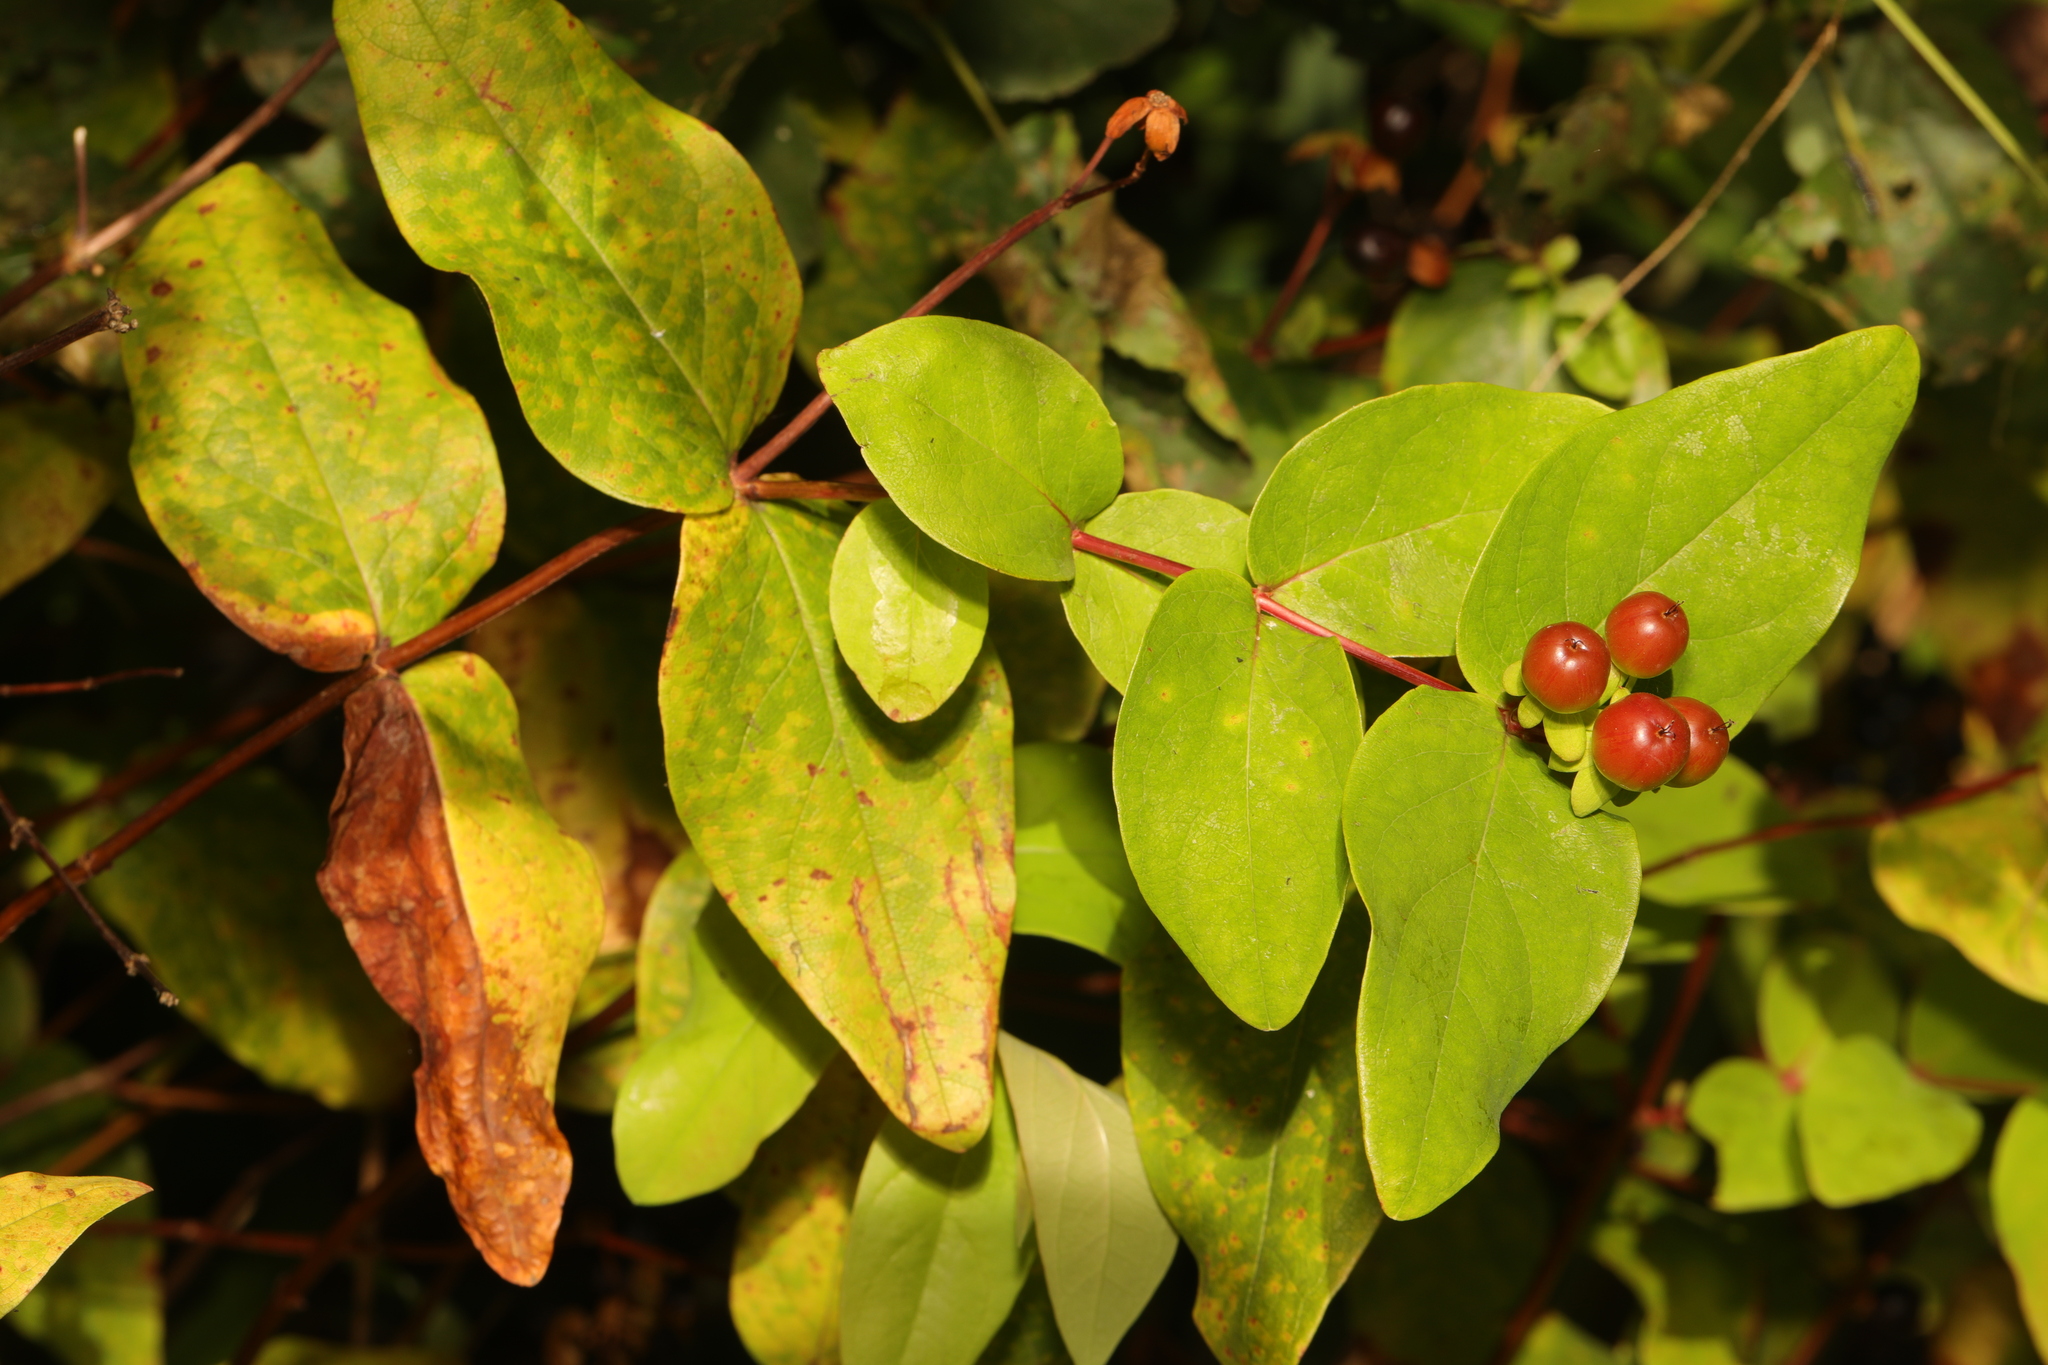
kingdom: Plantae
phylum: Tracheophyta
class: Magnoliopsida
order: Malpighiales
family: Hypericaceae
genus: Hypericum
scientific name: Hypericum androsaemum
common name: Sweet-amber
